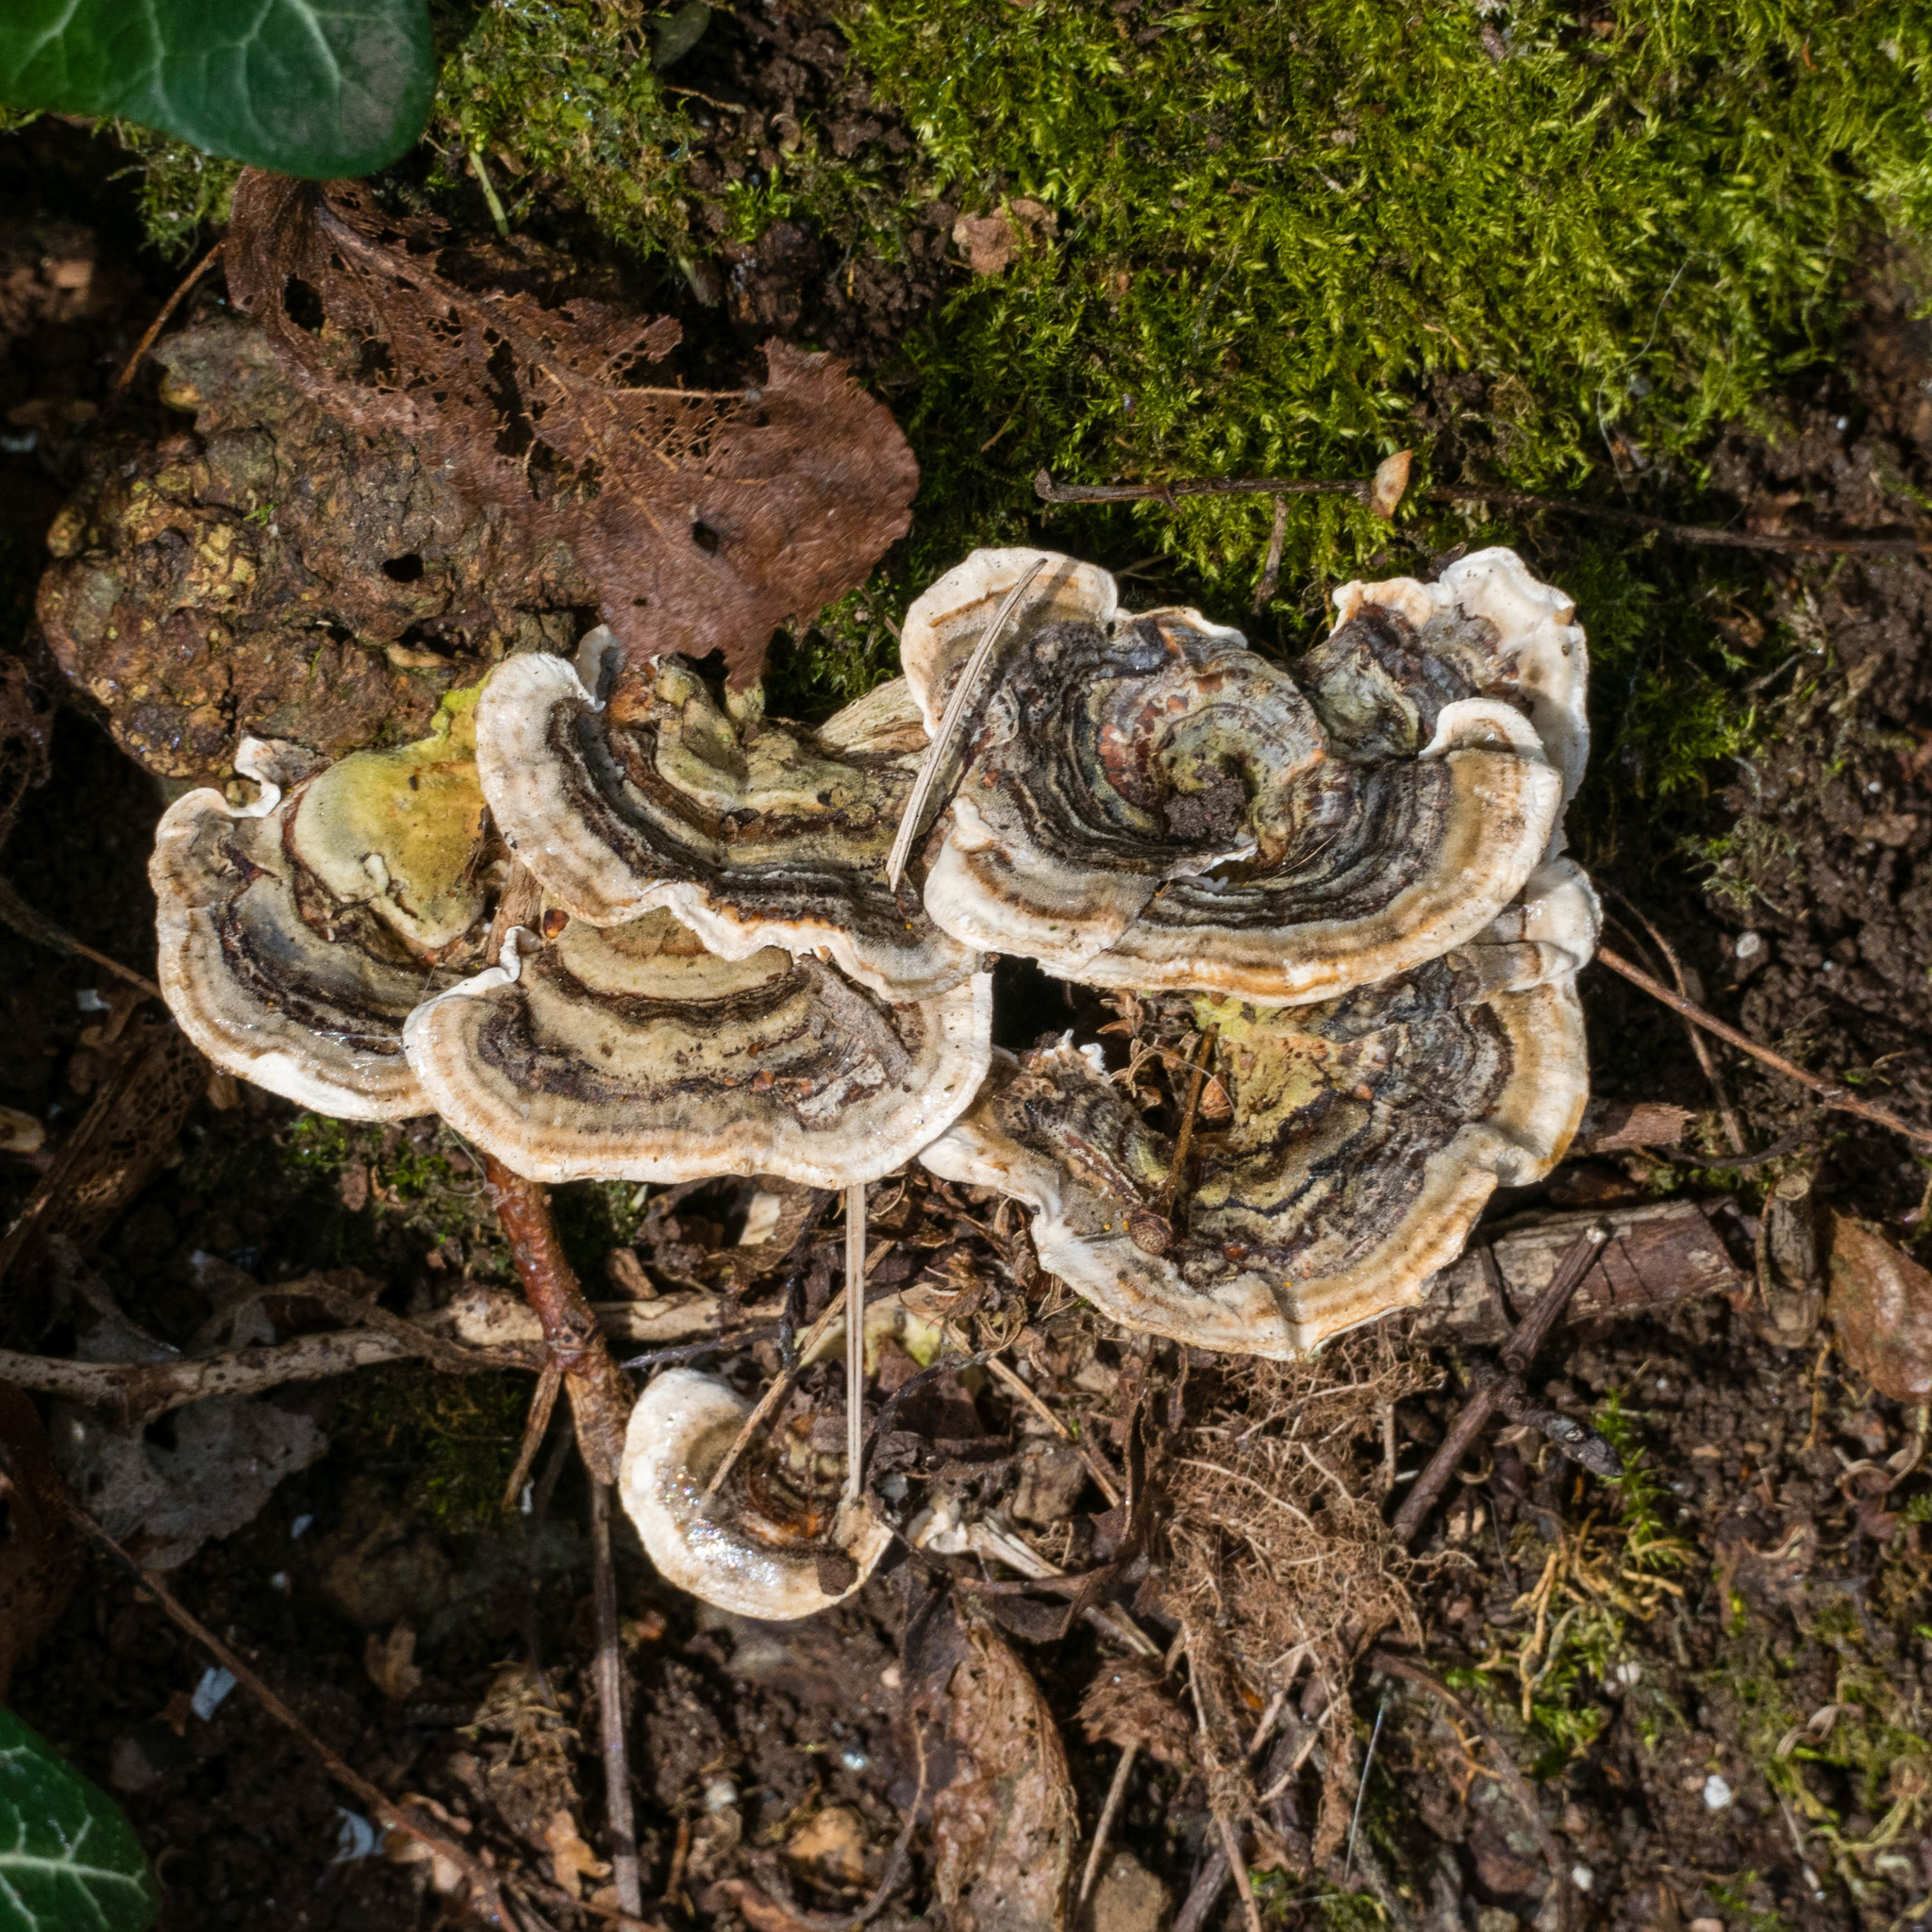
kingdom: Fungi
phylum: Basidiomycota
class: Agaricomycetes
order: Polyporales
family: Polyporaceae
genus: Trametes
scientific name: Trametes versicolor
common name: Turkeytail
